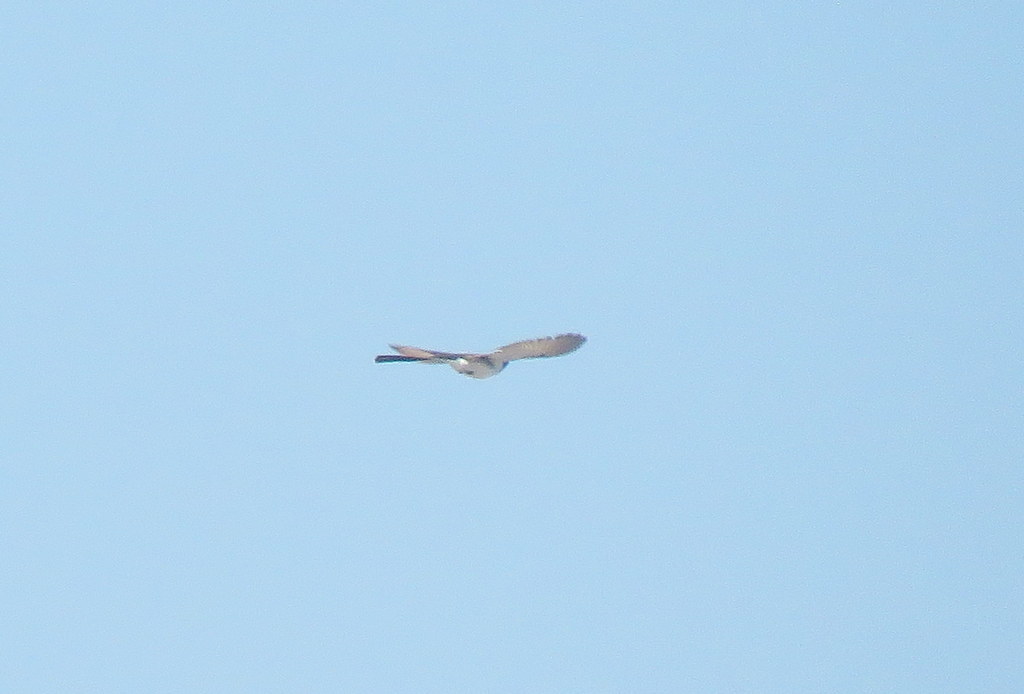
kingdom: Animalia
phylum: Chordata
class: Aves
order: Passeriformes
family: Tyrannidae
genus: Tyrannus
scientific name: Tyrannus savana
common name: Fork-tailed flycatcher
